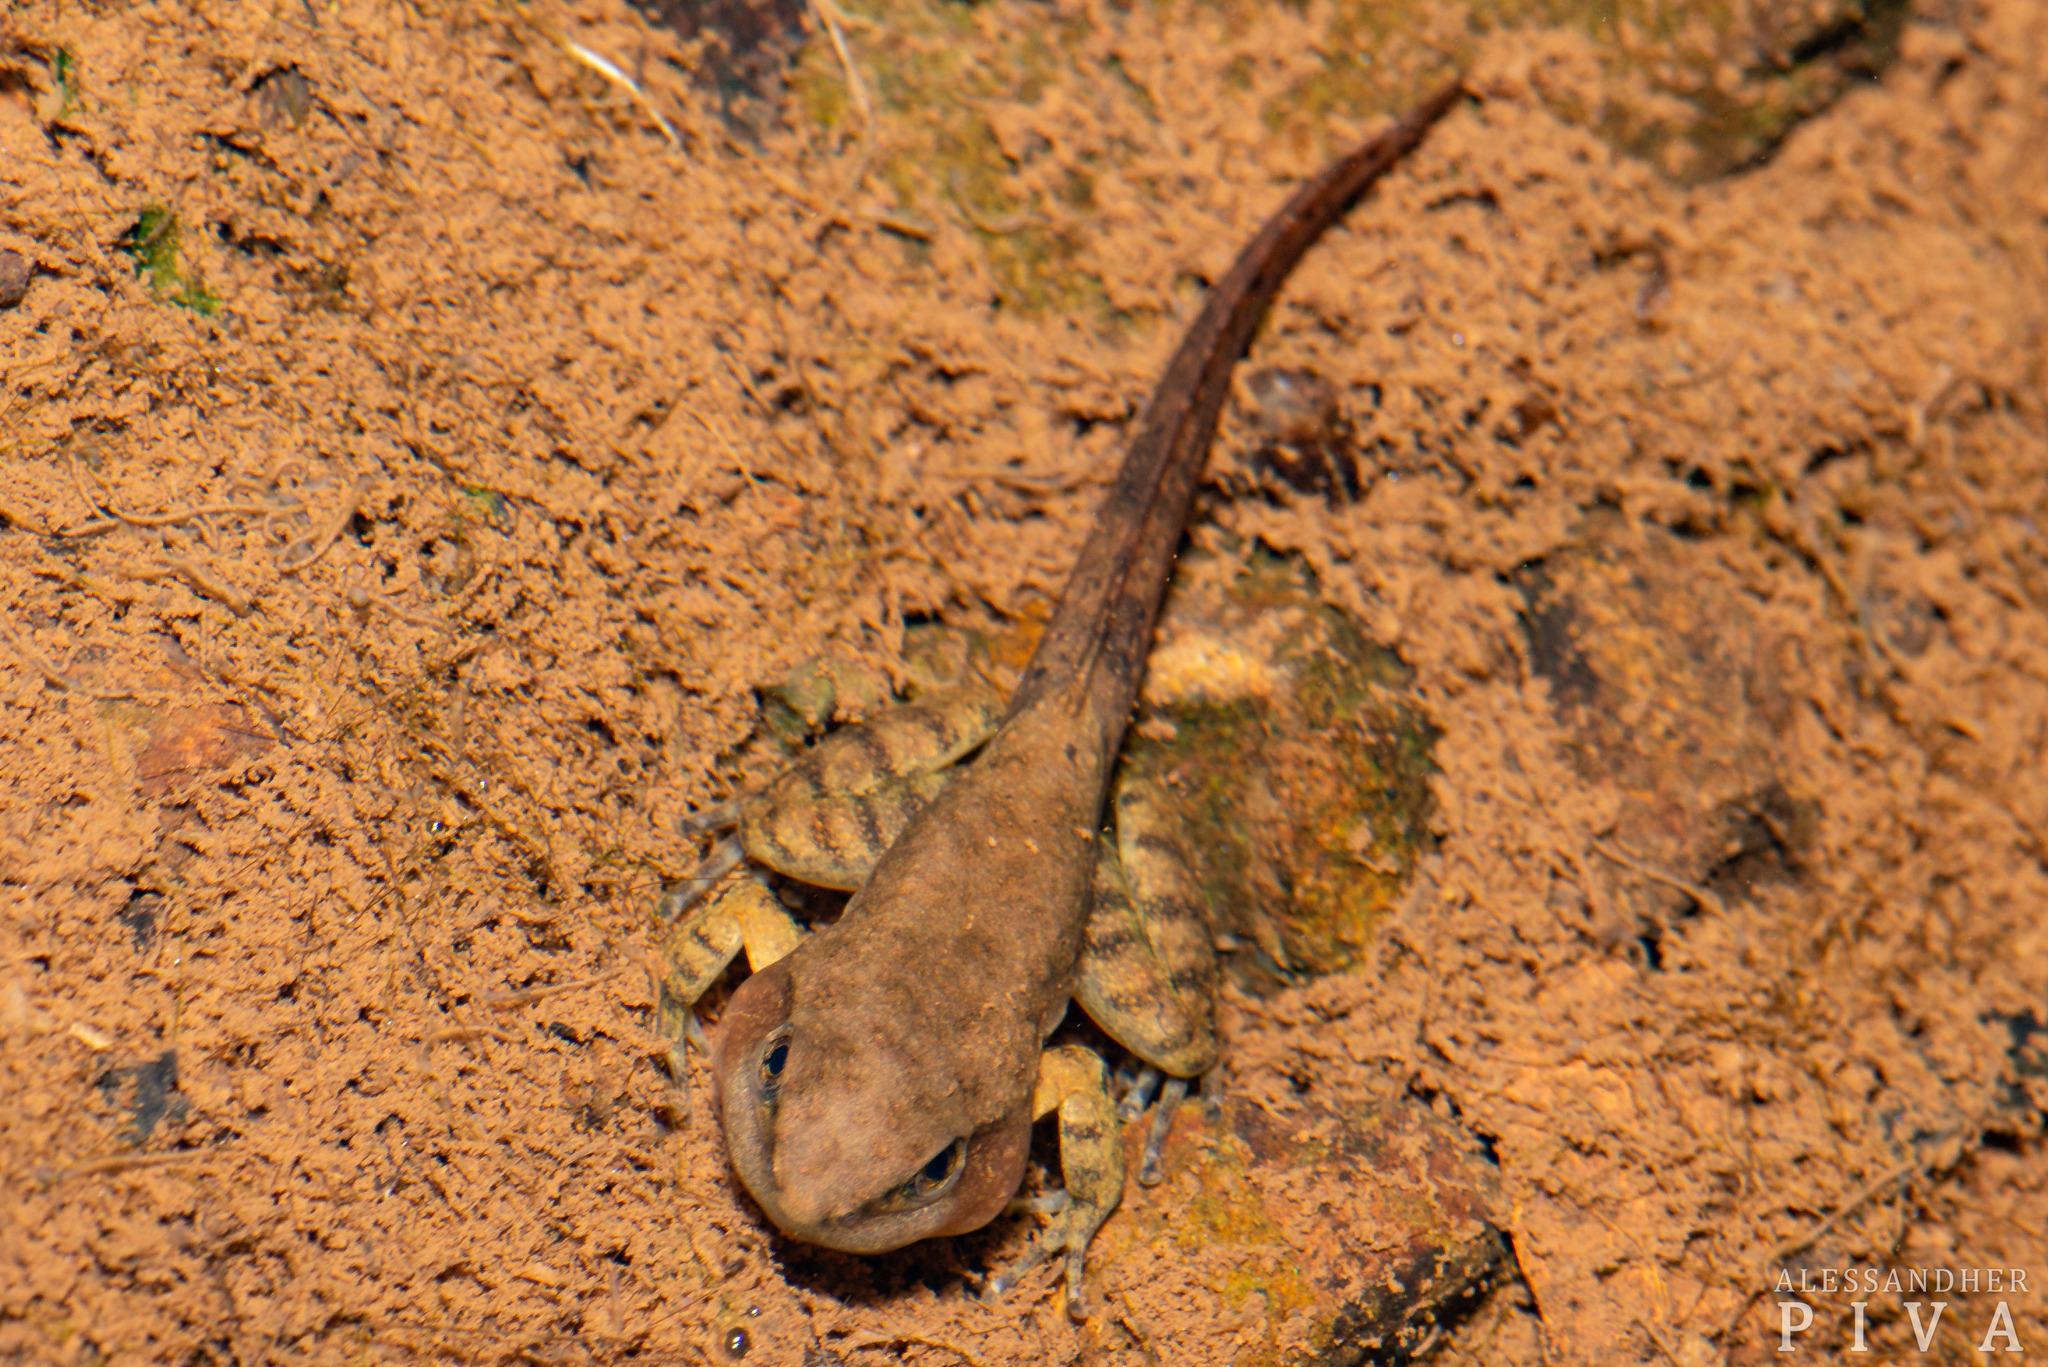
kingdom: Animalia
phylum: Chordata
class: Amphibia
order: Anura
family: Hylodidae
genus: Crossodactylus
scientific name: Crossodactylus schmidti
